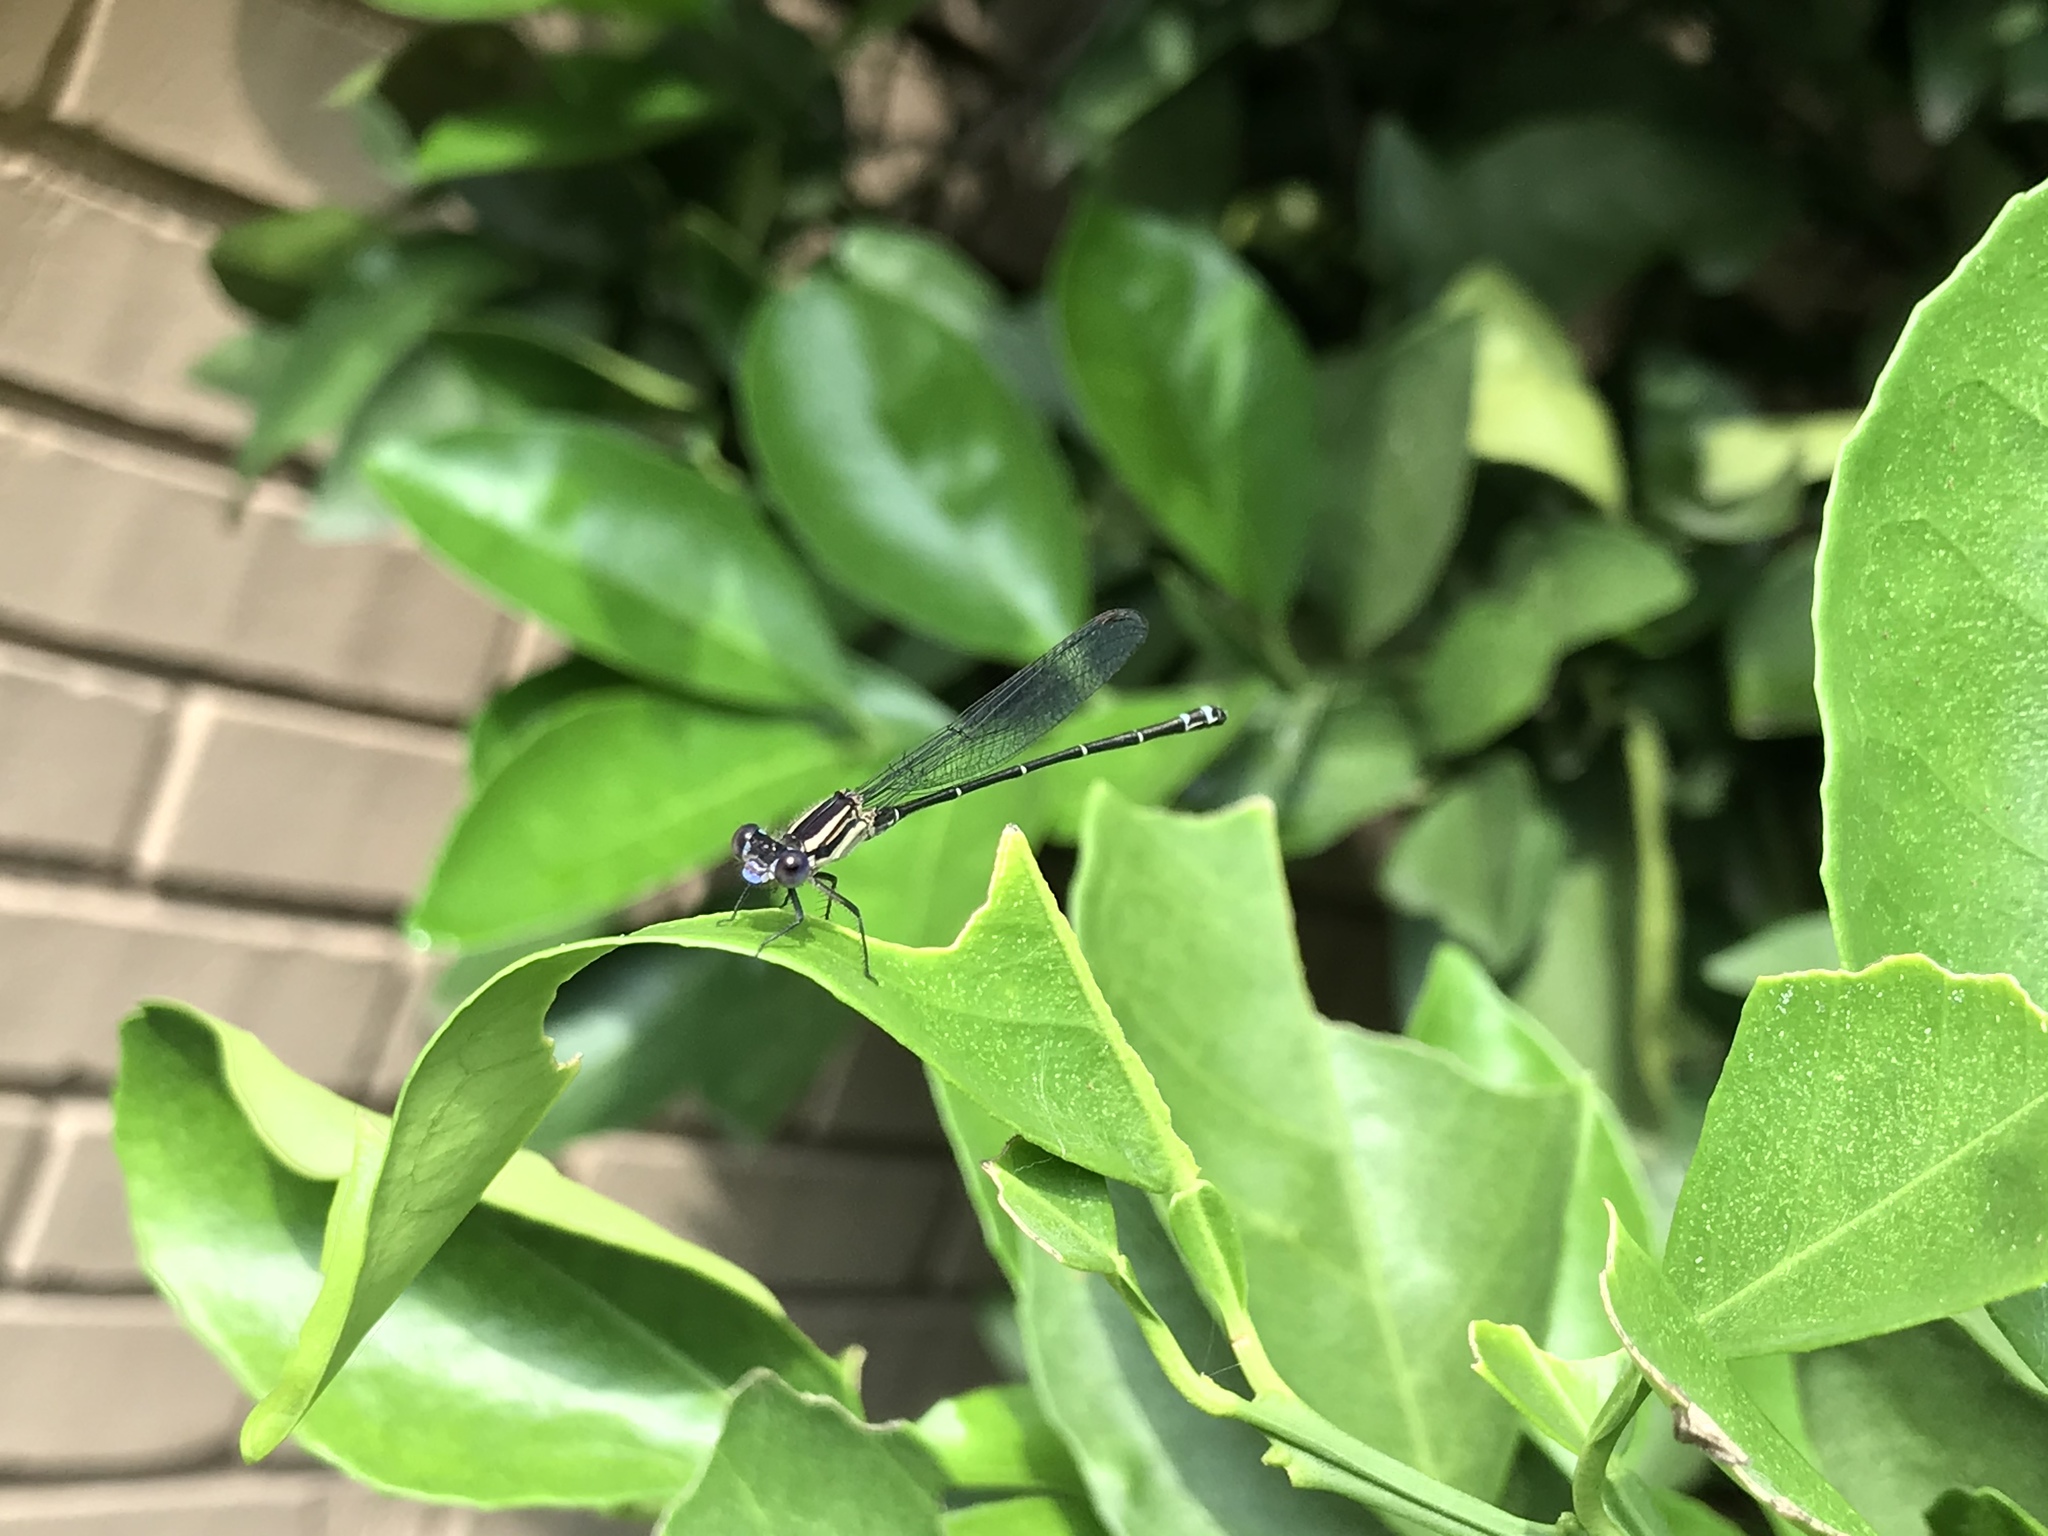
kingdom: Animalia
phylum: Arthropoda
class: Insecta
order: Odonata
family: Coenagrionidae
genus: Argia
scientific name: Argia translata
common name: Dusky dancer
